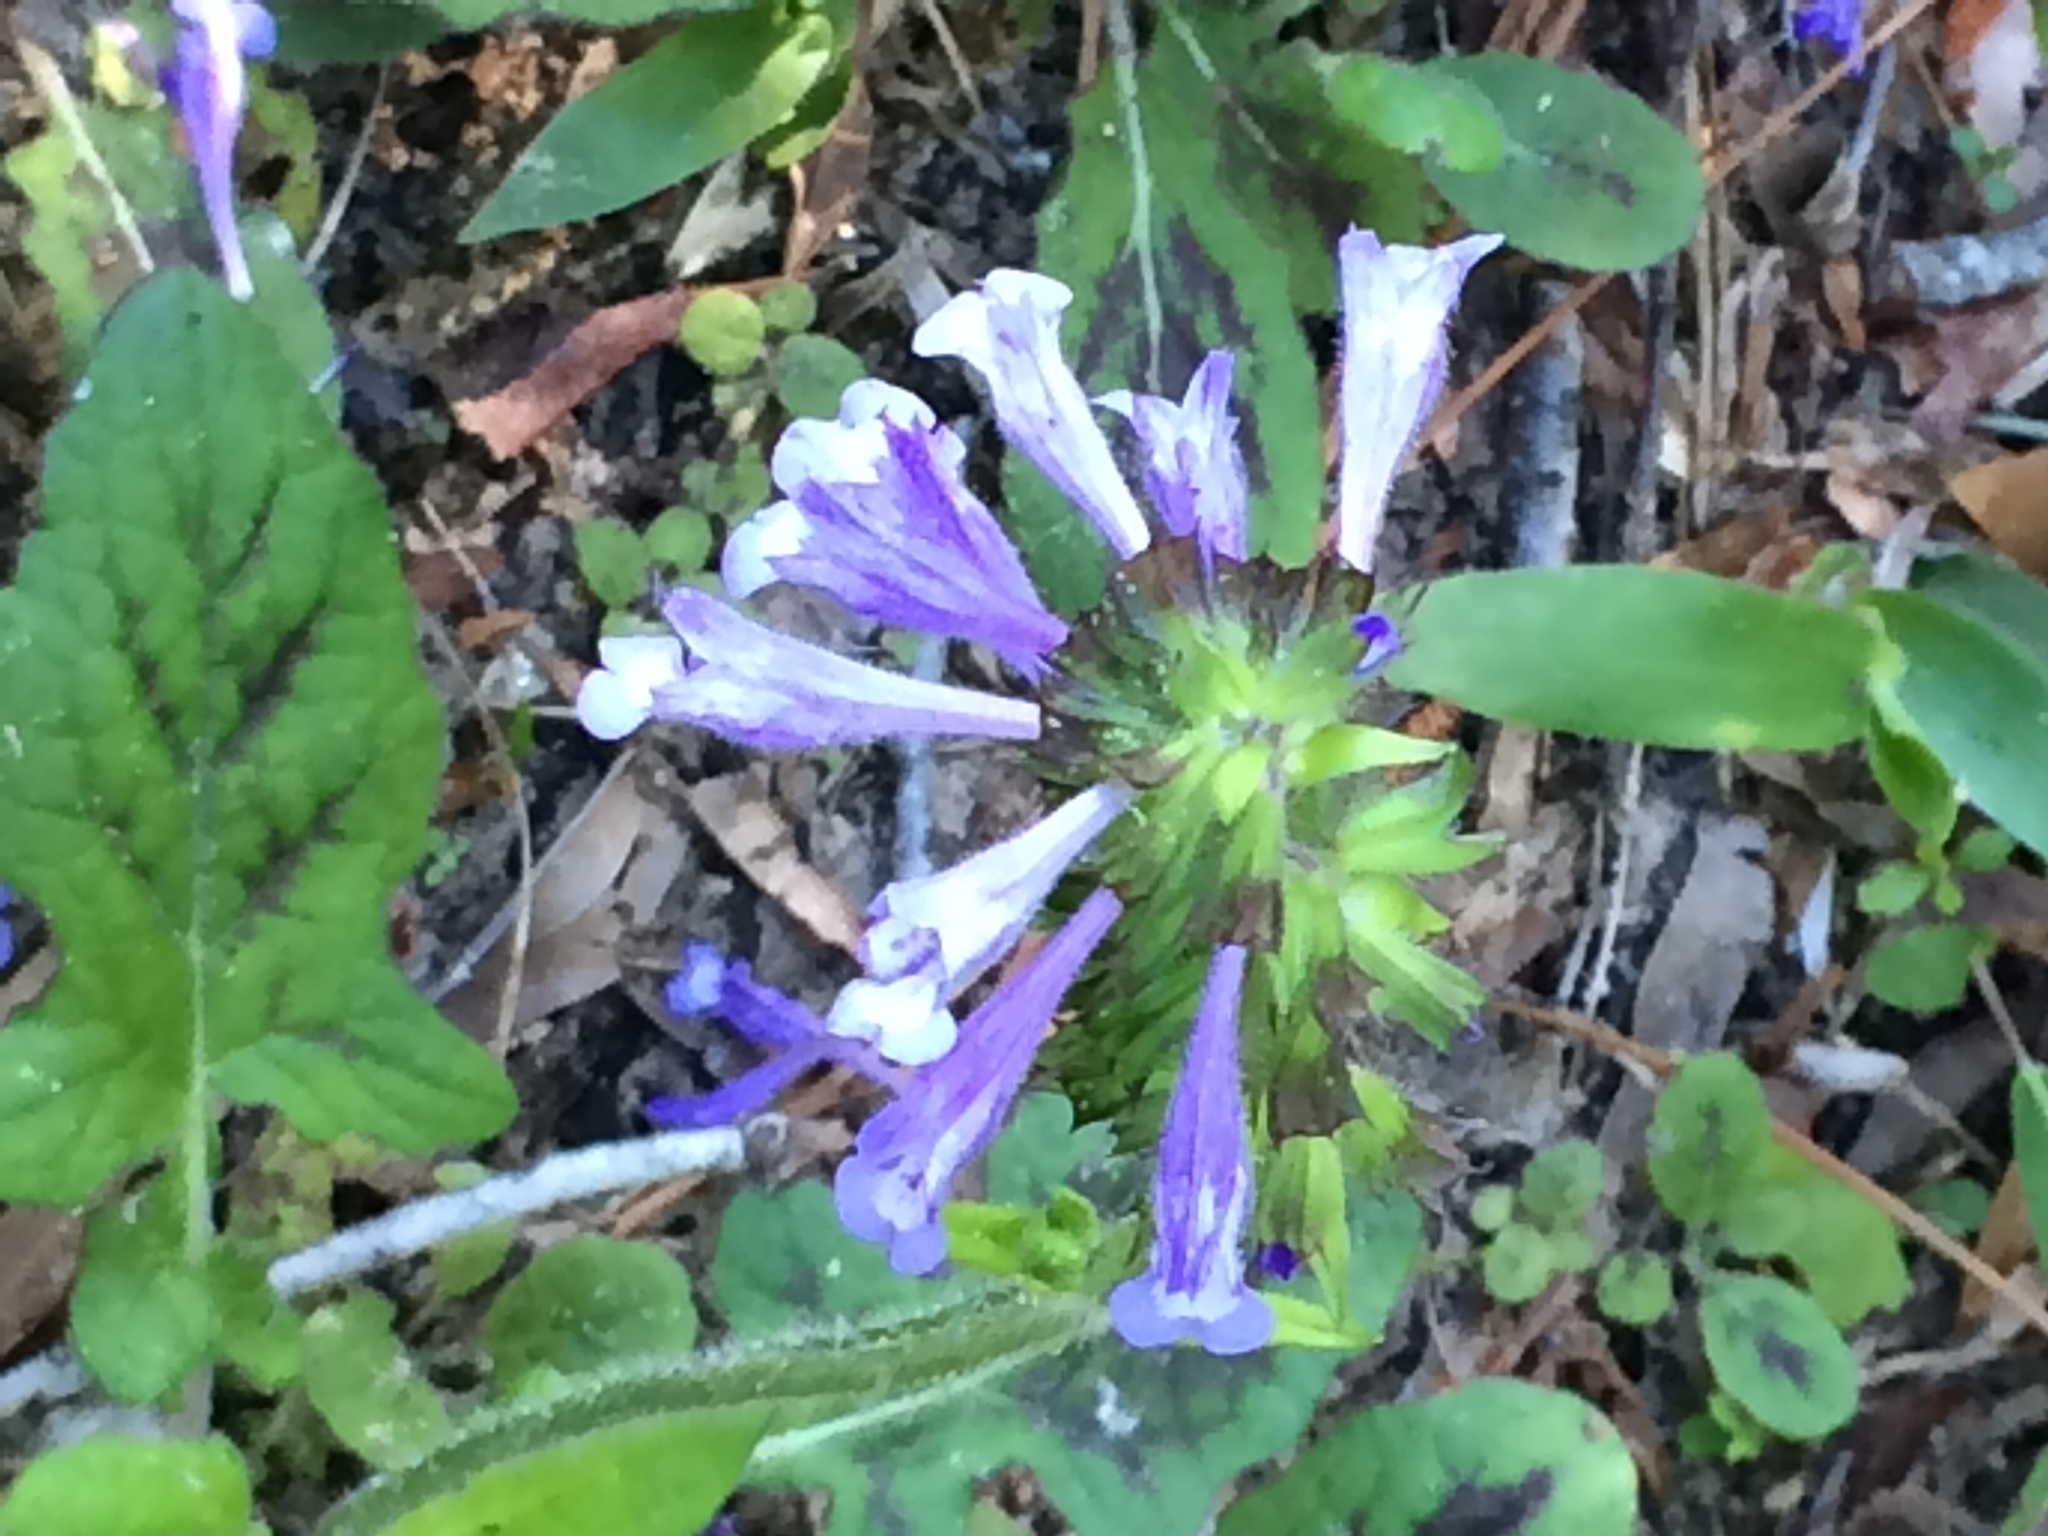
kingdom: Plantae
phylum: Tracheophyta
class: Magnoliopsida
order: Lamiales
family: Lamiaceae
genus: Salvia
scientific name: Salvia lyrata
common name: Cancerweed
